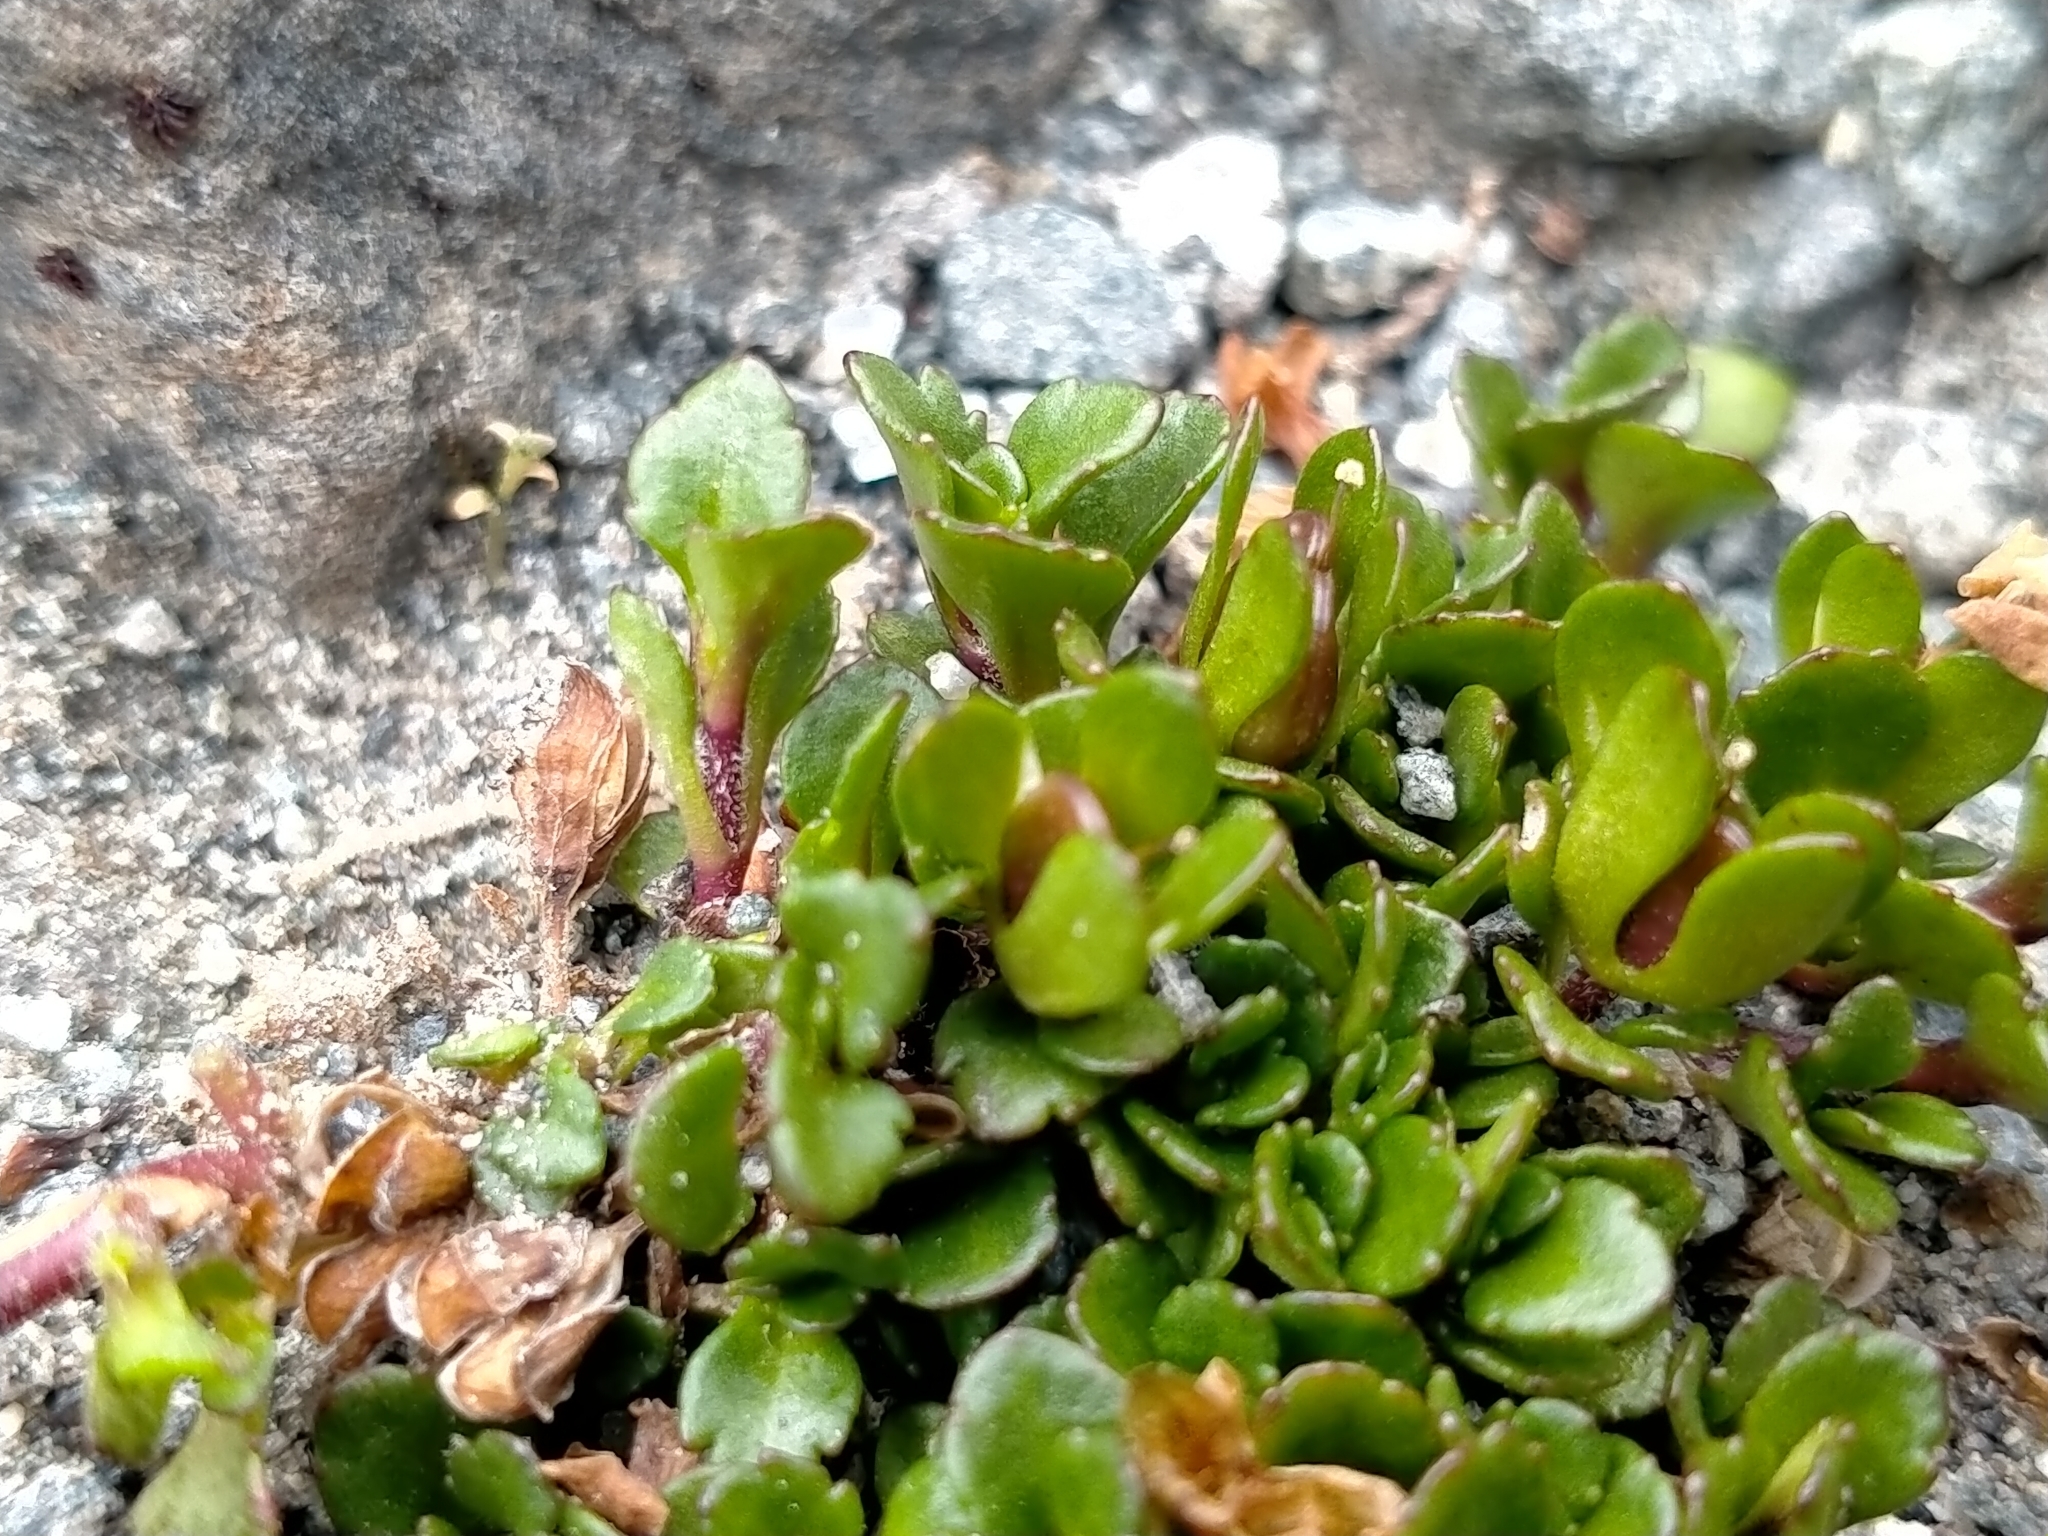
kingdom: Plantae
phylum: Tracheophyta
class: Magnoliopsida
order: Lamiales
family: Plantaginaceae
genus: Veronica
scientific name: Veronica zygantha
